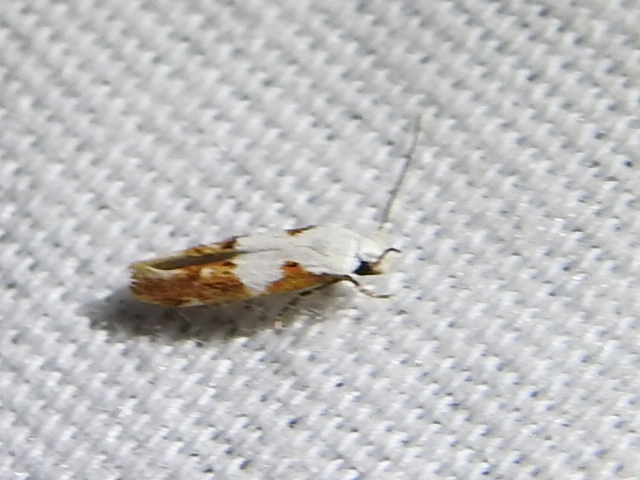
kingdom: Animalia
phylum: Arthropoda
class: Insecta
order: Lepidoptera
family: Momphidae
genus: Mompha
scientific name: Mompha circumscriptella
